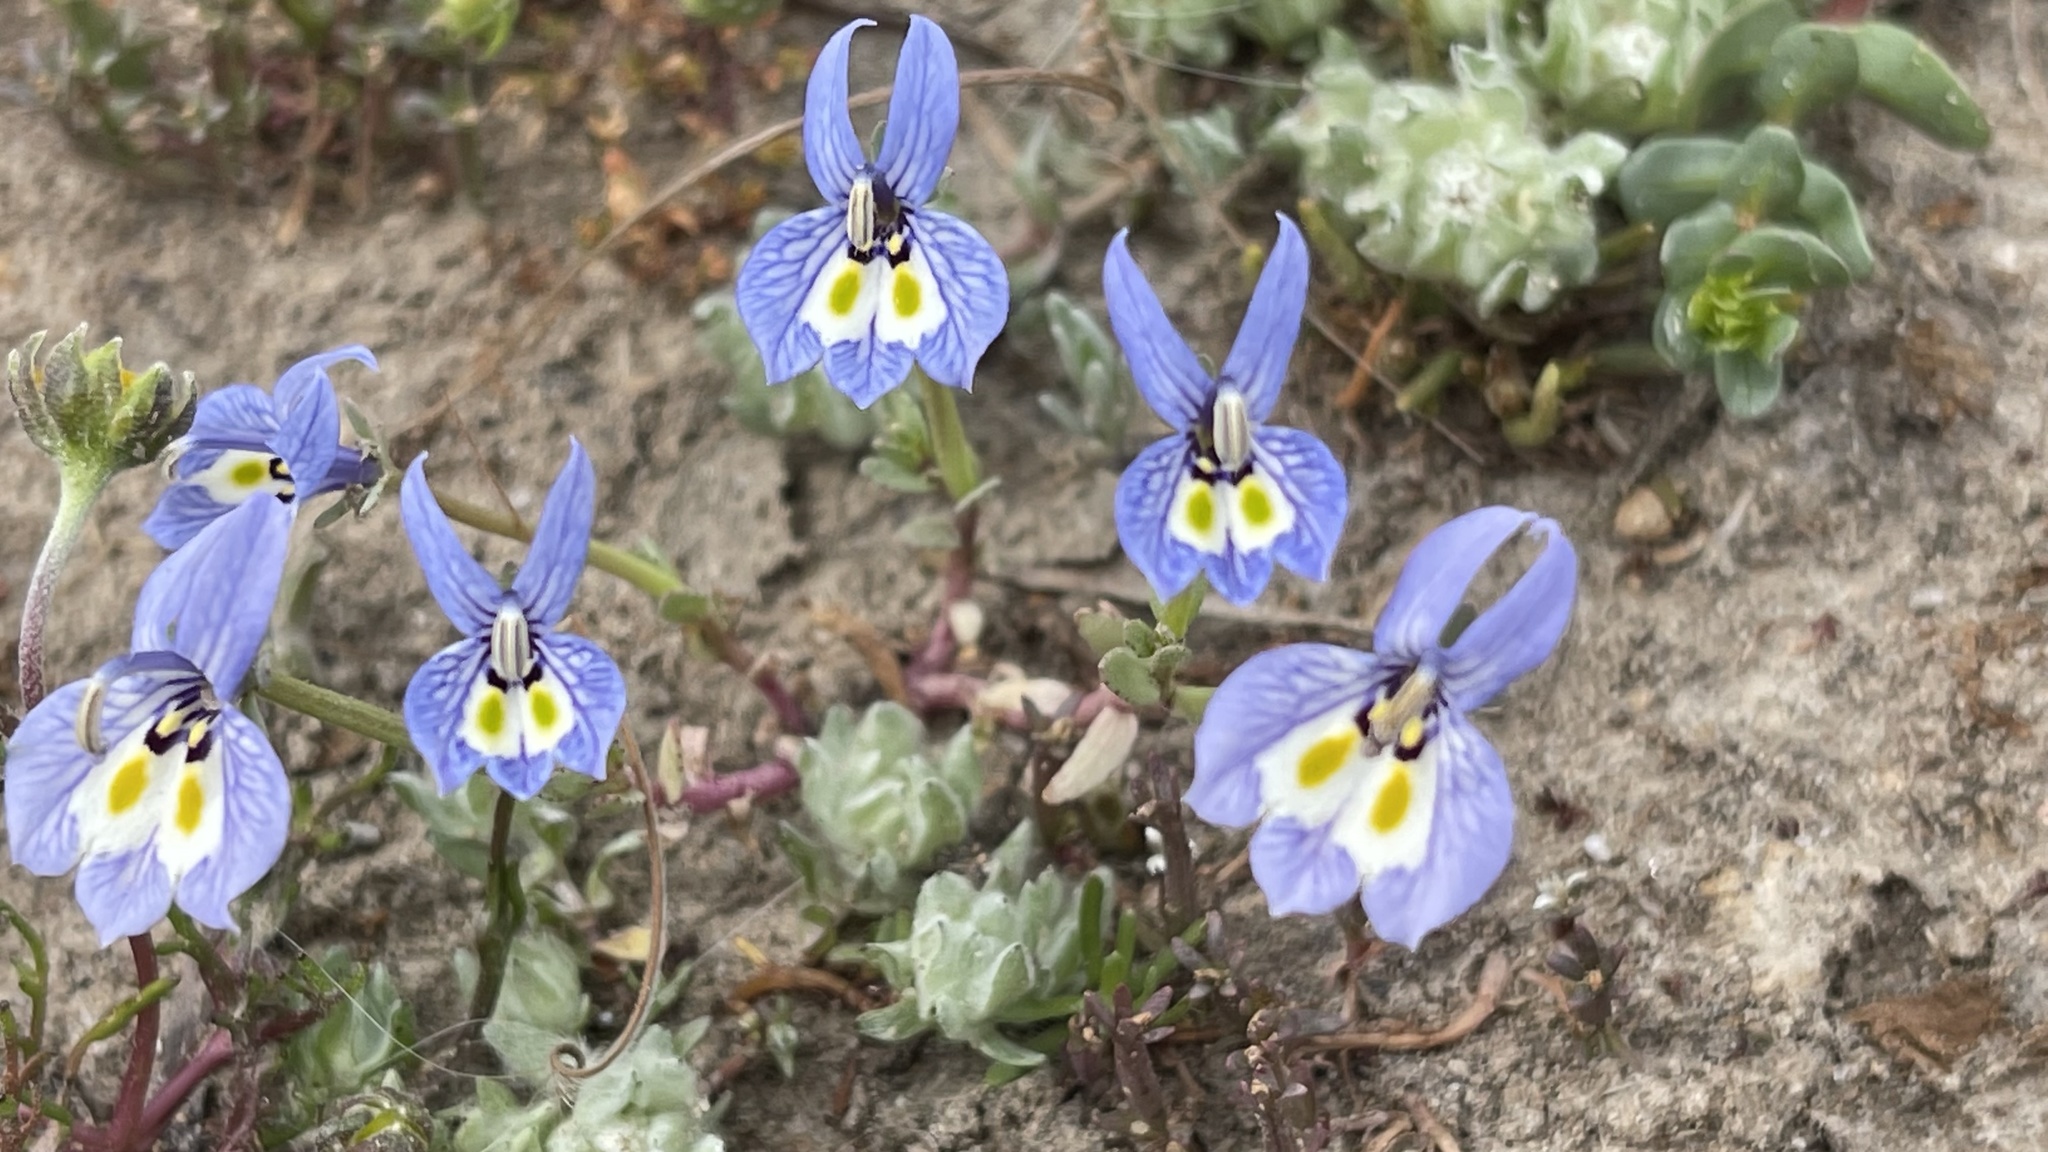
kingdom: Plantae
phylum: Tracheophyta
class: Magnoliopsida
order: Asterales
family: Campanulaceae
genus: Downingia
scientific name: Downingia insignis
